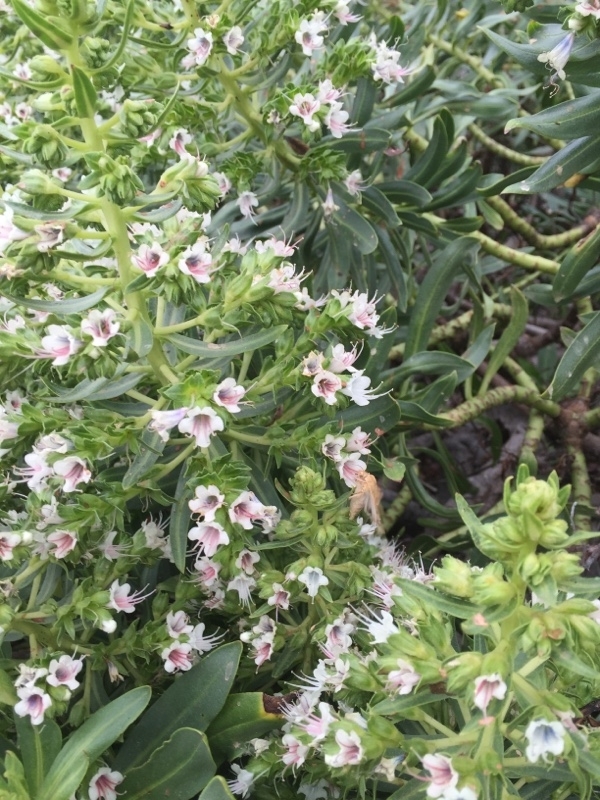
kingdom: Plantae
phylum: Tracheophyta
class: Magnoliopsida
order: Boraginales
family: Boraginaceae
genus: Echium
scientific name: Echium decaisnei
